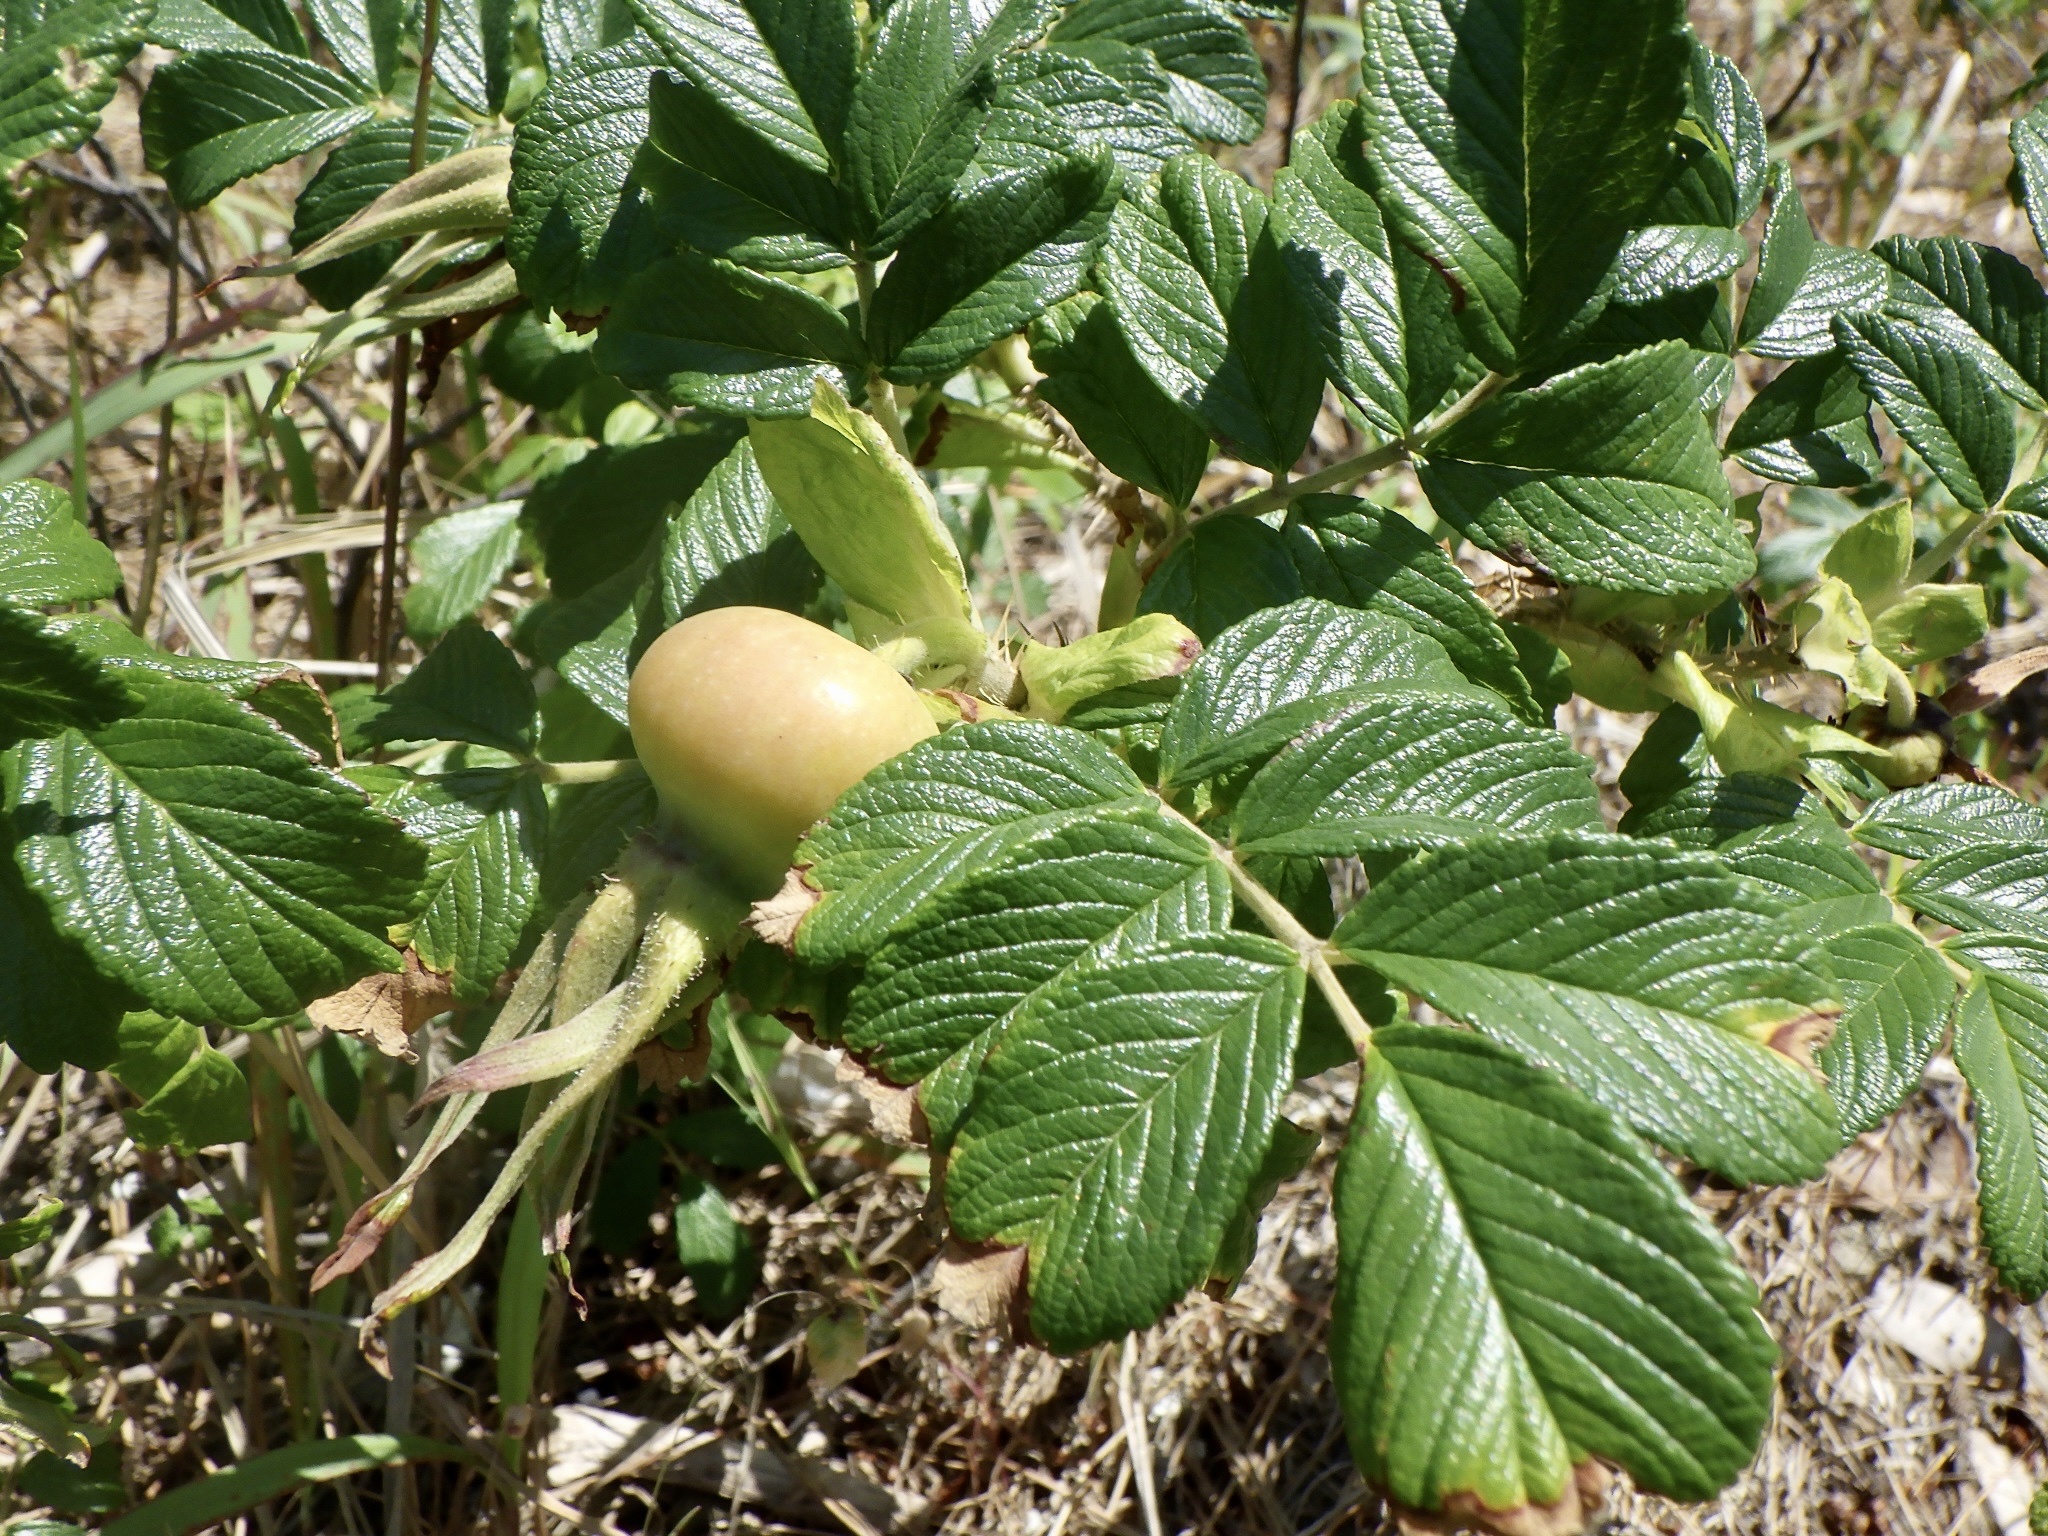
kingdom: Plantae
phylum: Tracheophyta
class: Magnoliopsida
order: Rosales
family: Rosaceae
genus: Rosa
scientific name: Rosa rugosa
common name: Japanese rose
